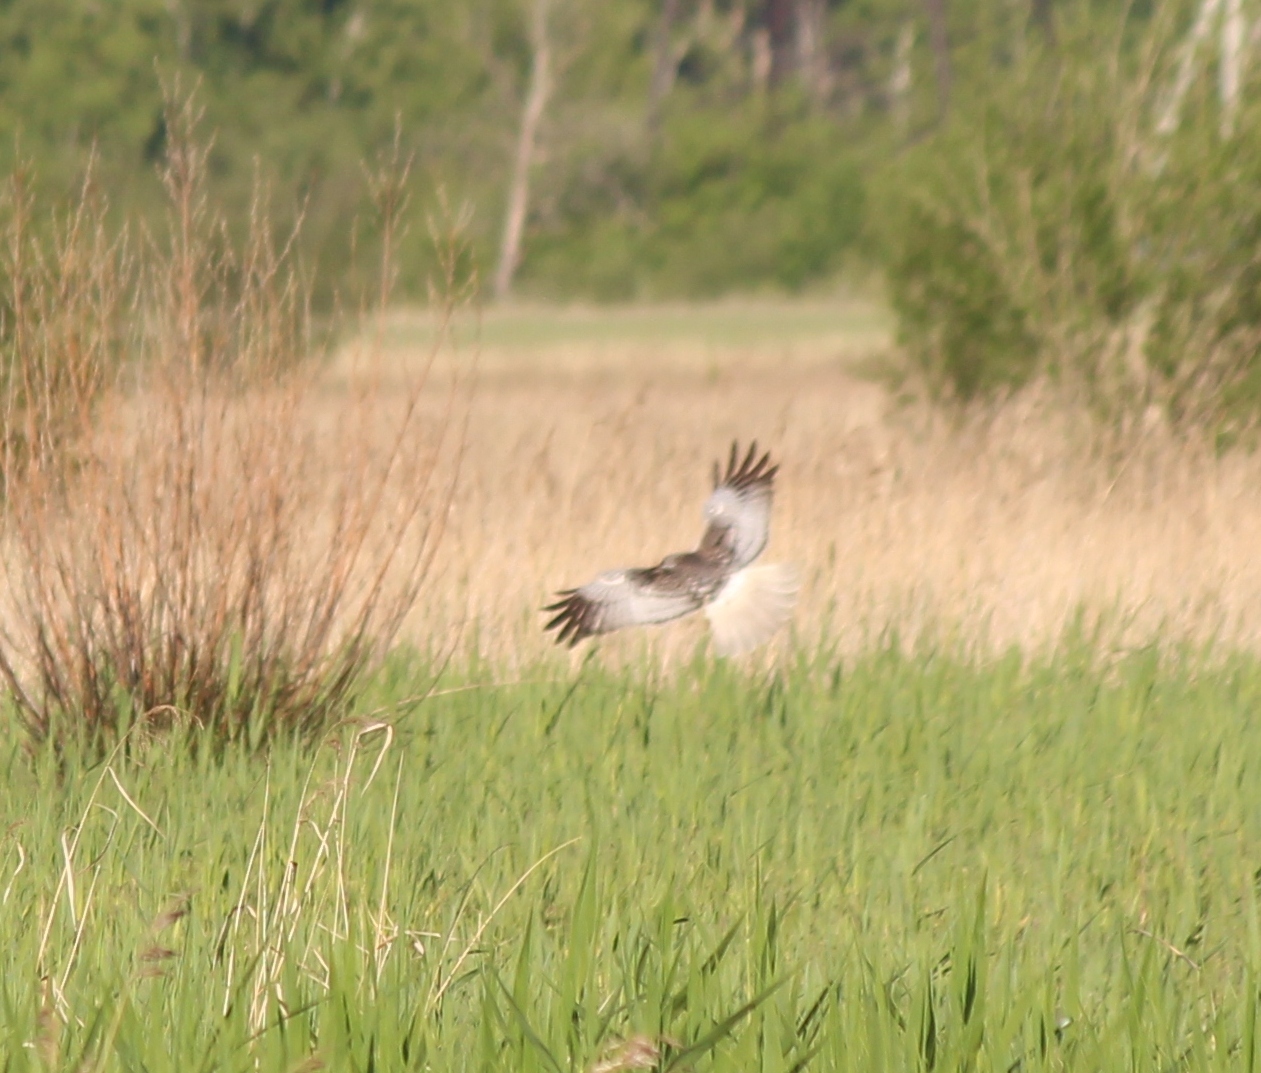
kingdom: Animalia
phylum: Chordata
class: Aves
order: Accipitriformes
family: Accipitridae
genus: Circus
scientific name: Circus spilonotus
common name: Eastern marsh-harrier
